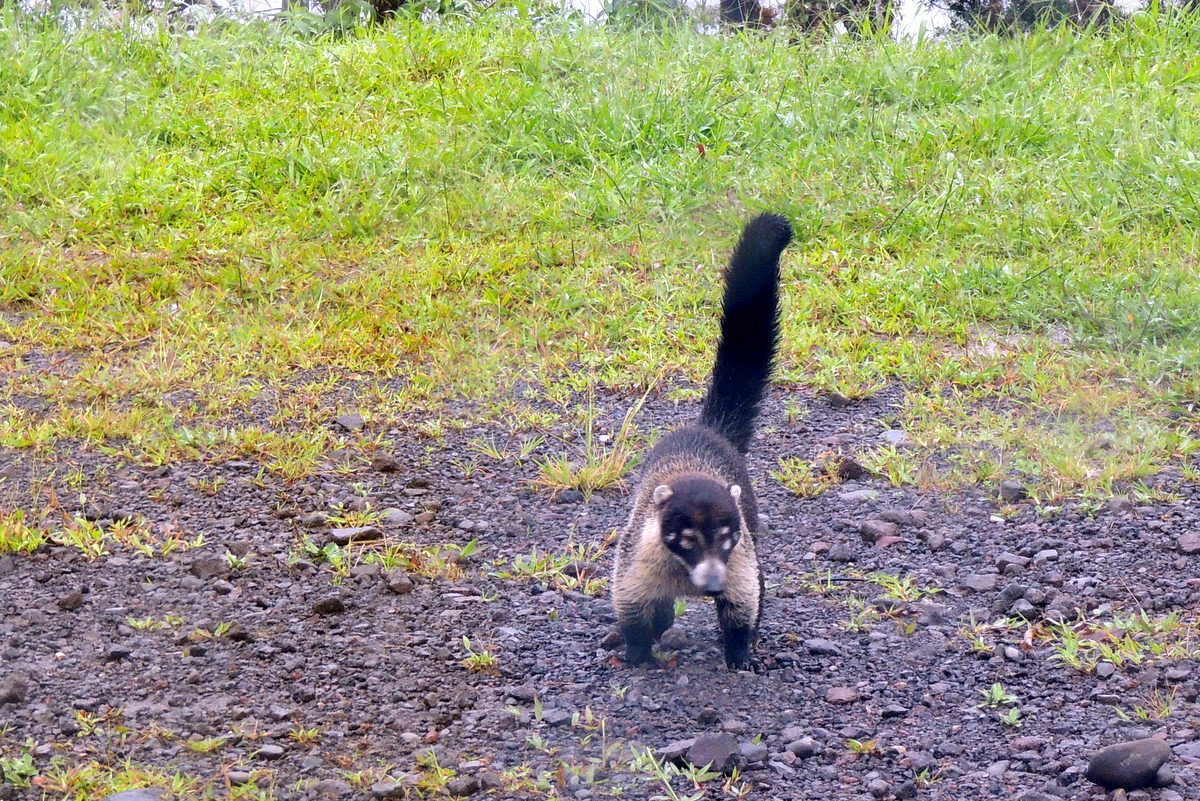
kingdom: Animalia
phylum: Chordata
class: Mammalia
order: Carnivora
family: Procyonidae
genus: Nasua
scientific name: Nasua narica
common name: White-nosed coati
